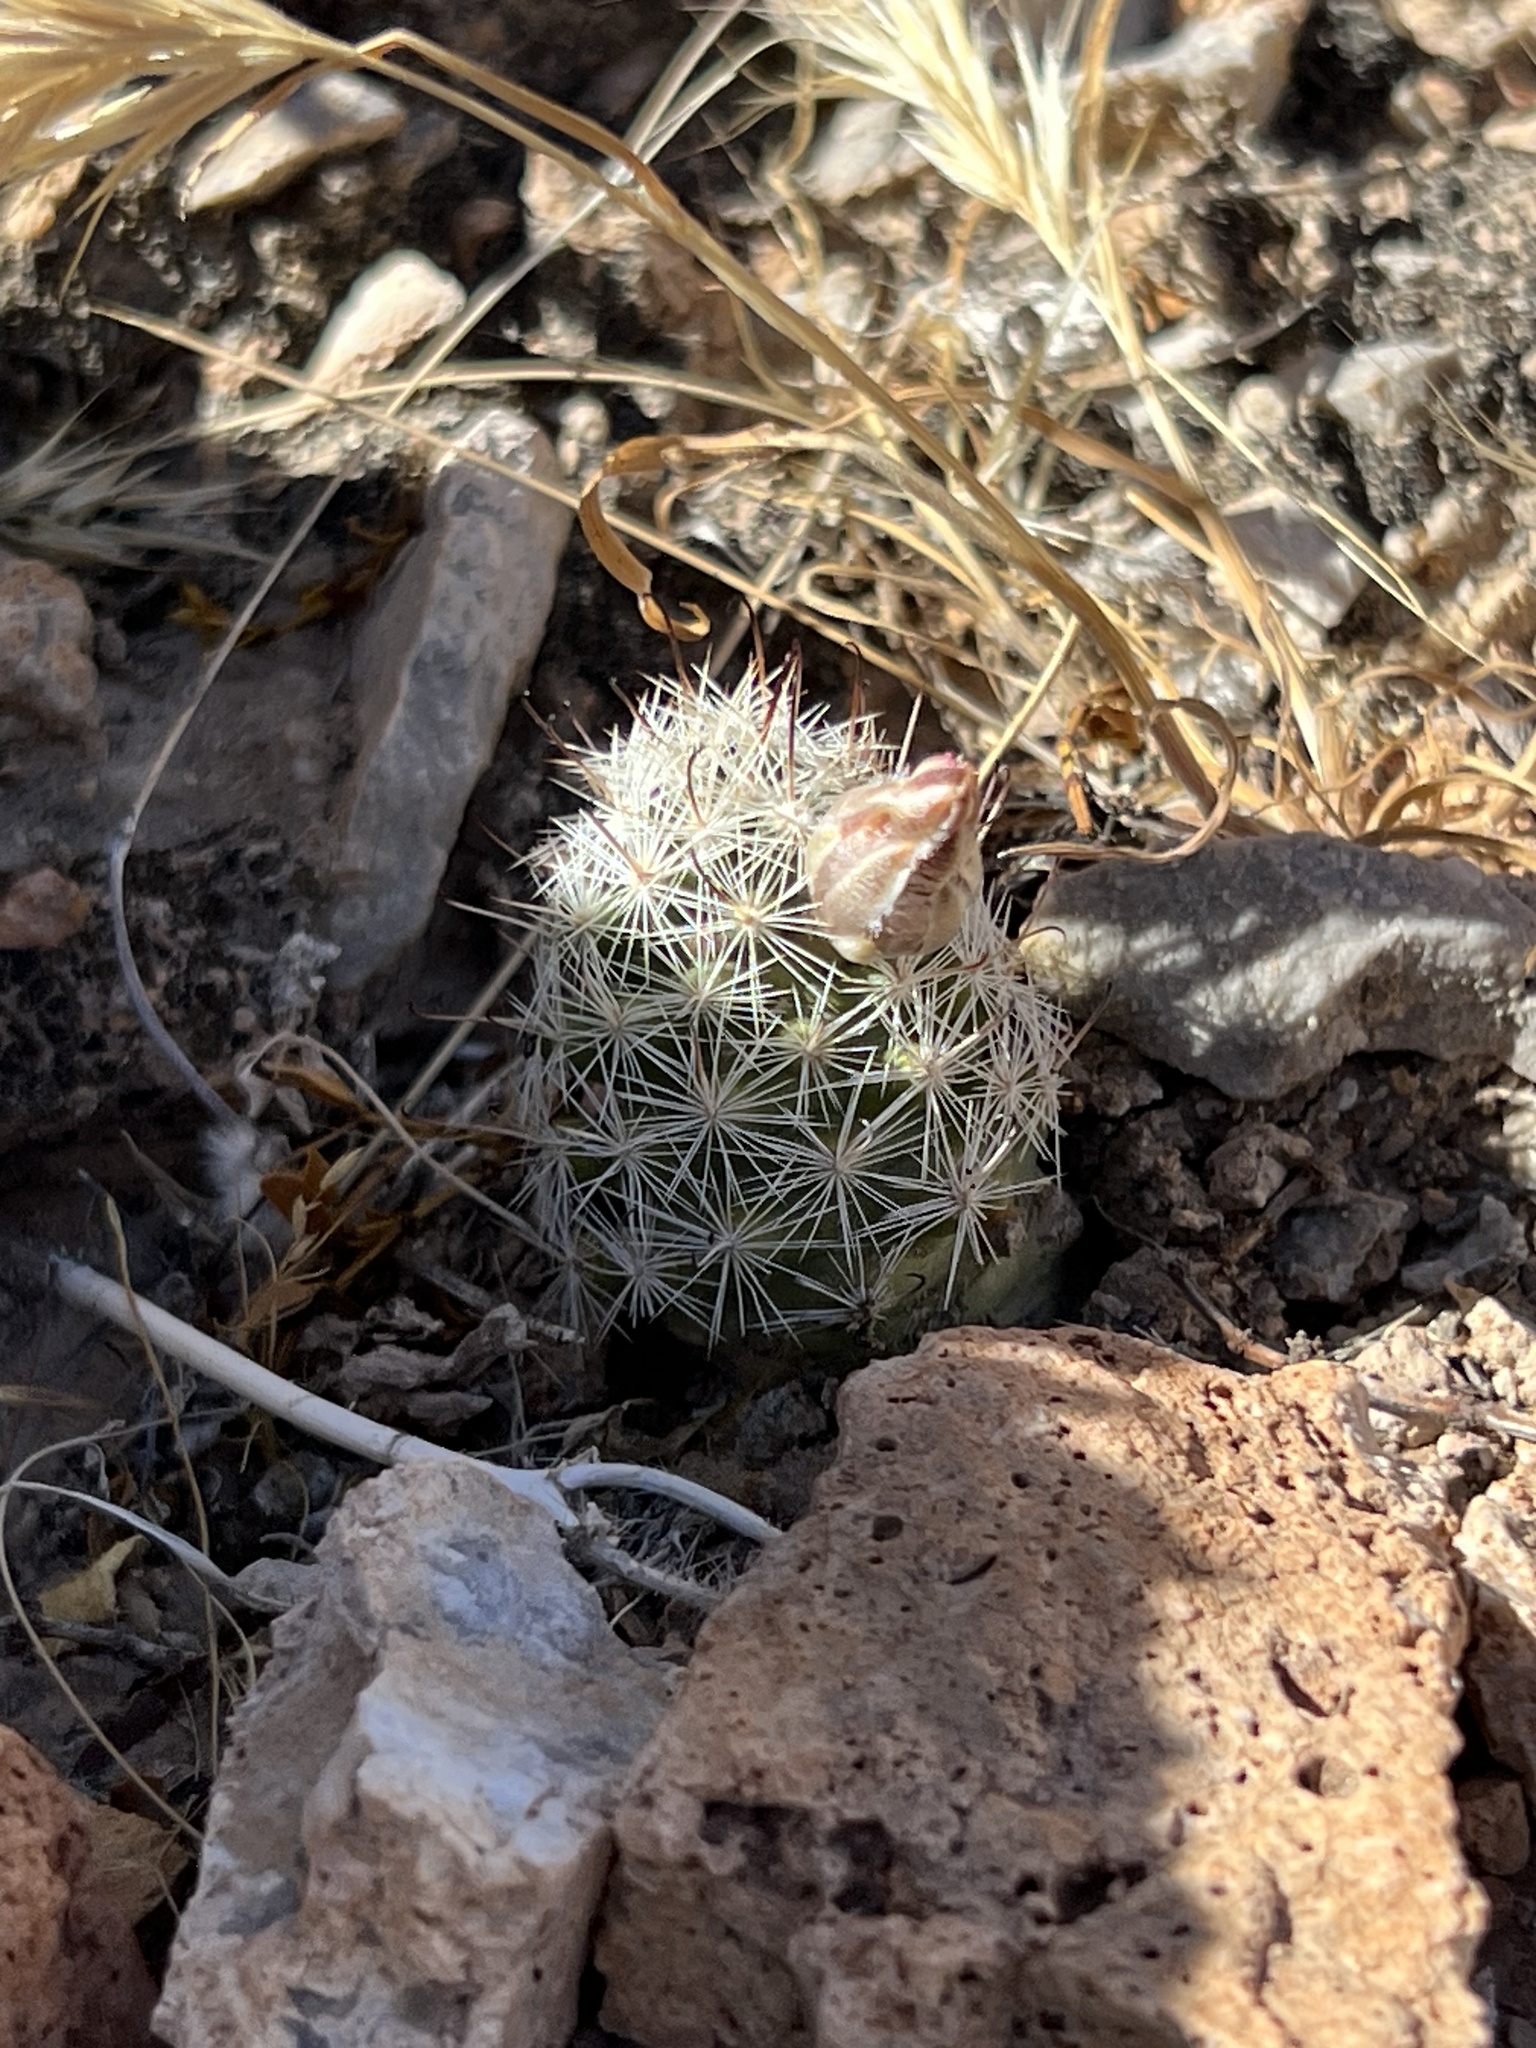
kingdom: Plantae
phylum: Tracheophyta
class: Magnoliopsida
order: Caryophyllales
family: Cactaceae
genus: Cochemiea
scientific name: Cochemiea tetrancistra
